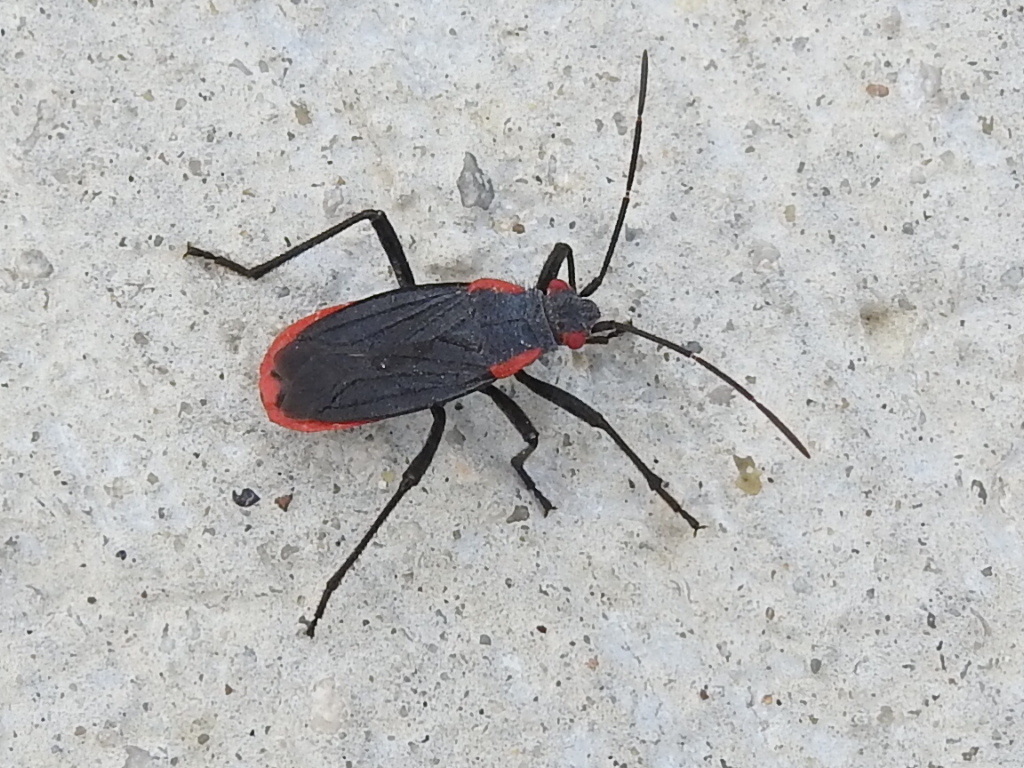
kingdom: Animalia
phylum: Arthropoda
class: Insecta
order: Hemiptera
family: Rhopalidae
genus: Jadera
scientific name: Jadera haematoloma
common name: Red-shouldered bug
